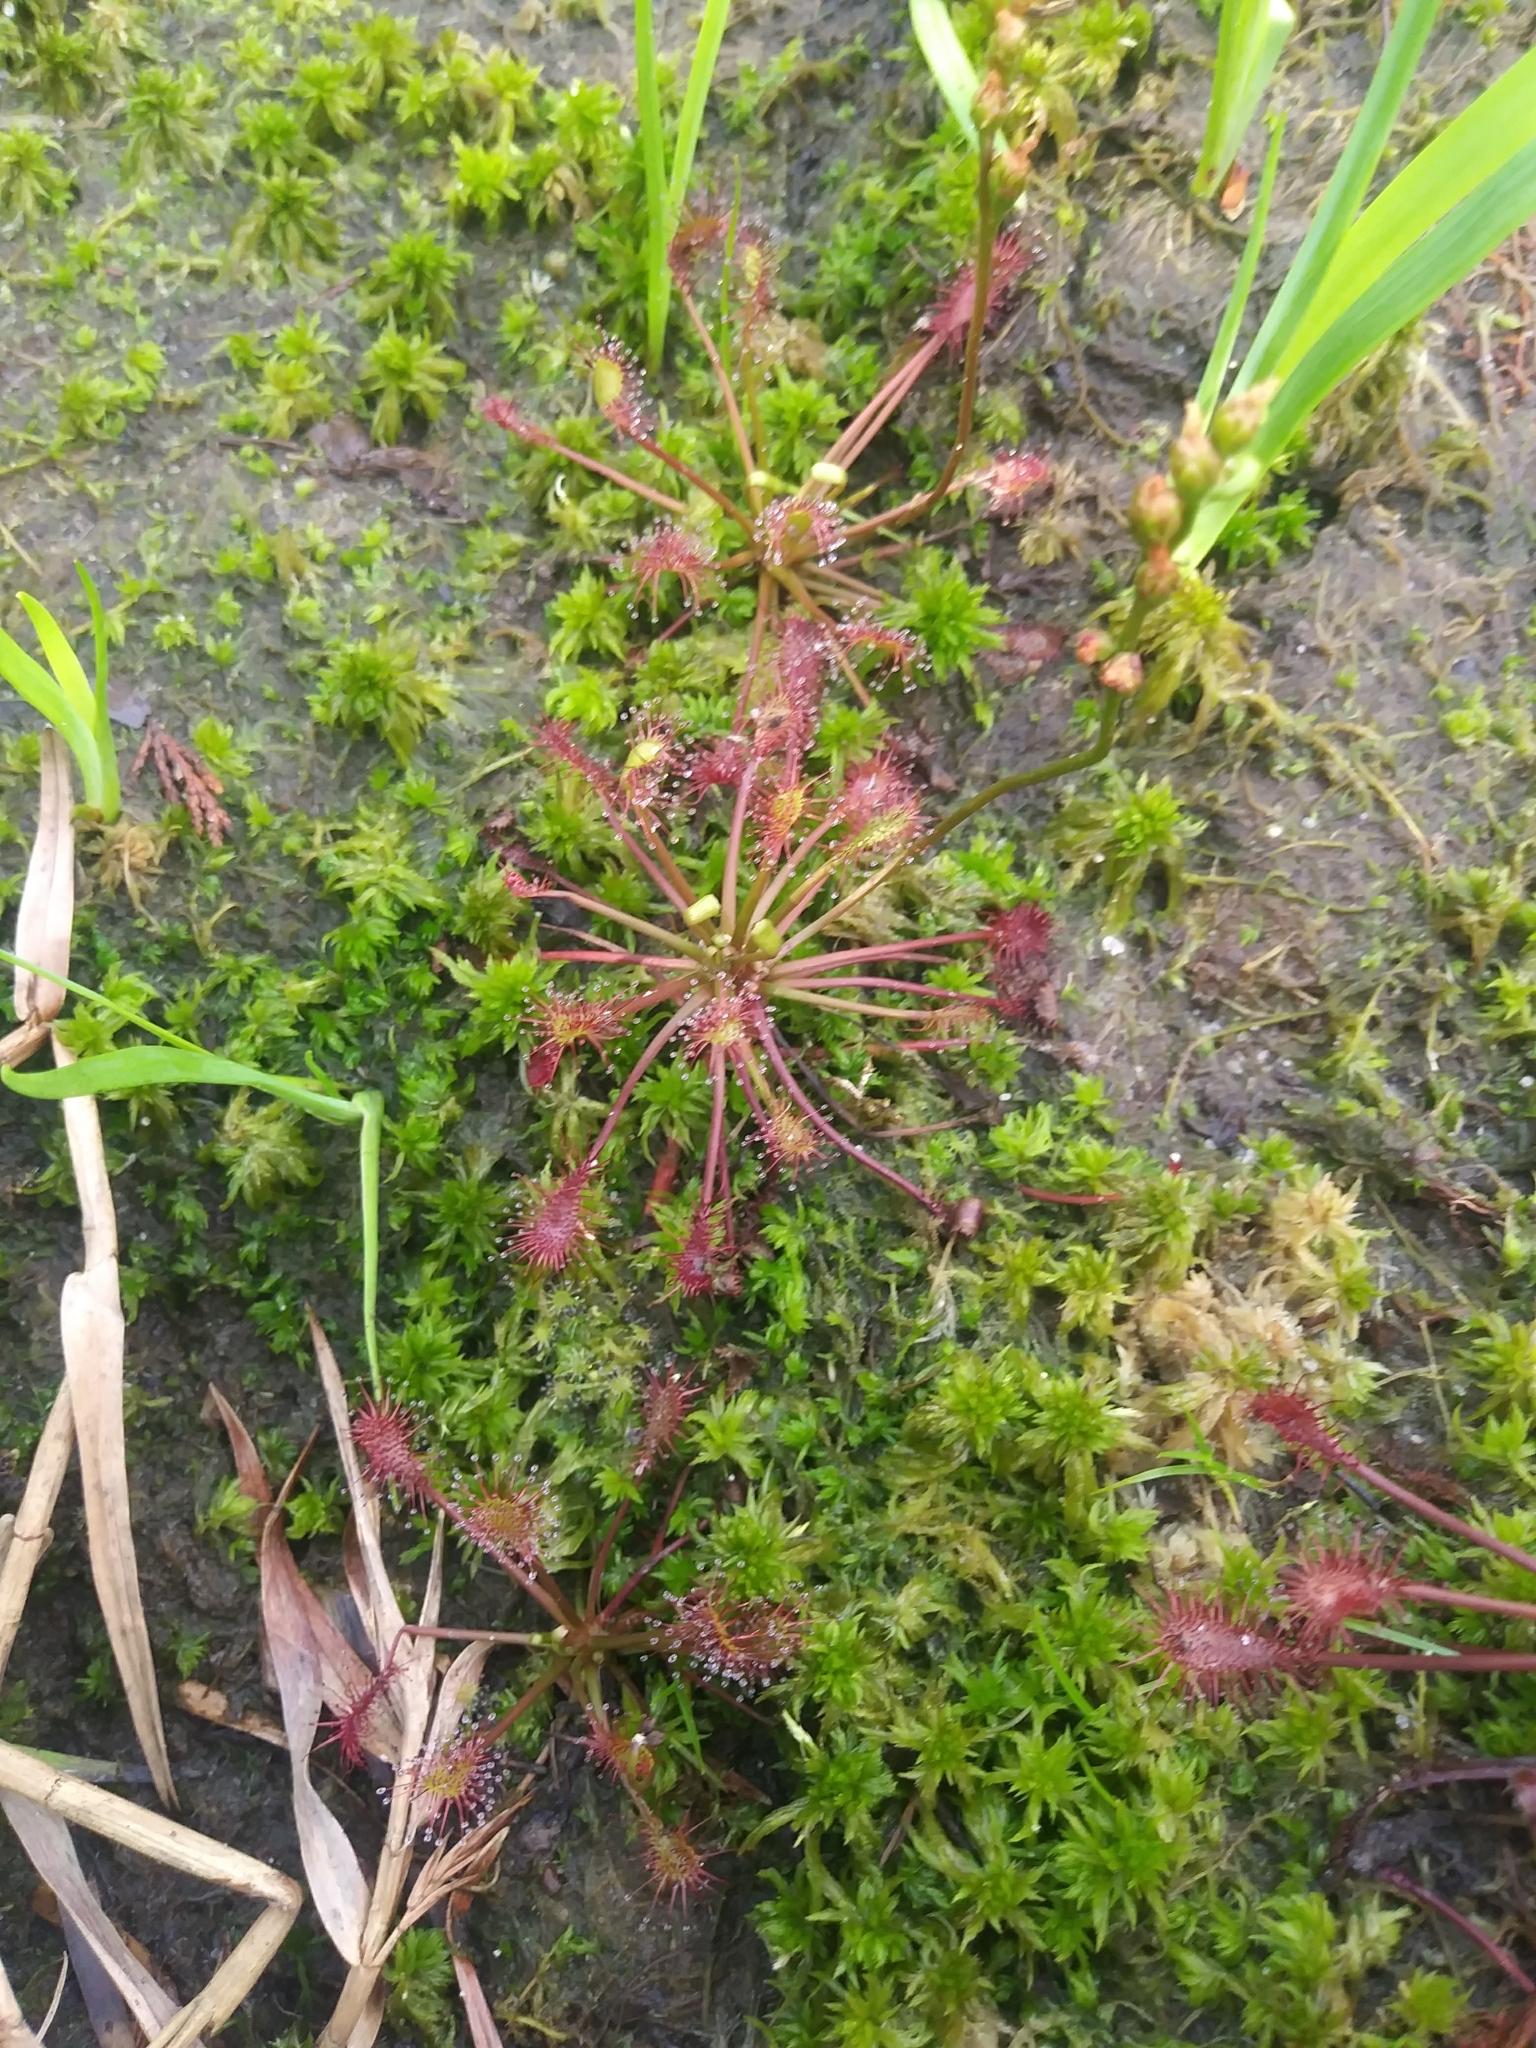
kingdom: Plantae
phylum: Tracheophyta
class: Magnoliopsida
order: Caryophyllales
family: Droseraceae
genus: Drosera
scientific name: Drosera intermedia
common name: Oblong-leaved sundew
